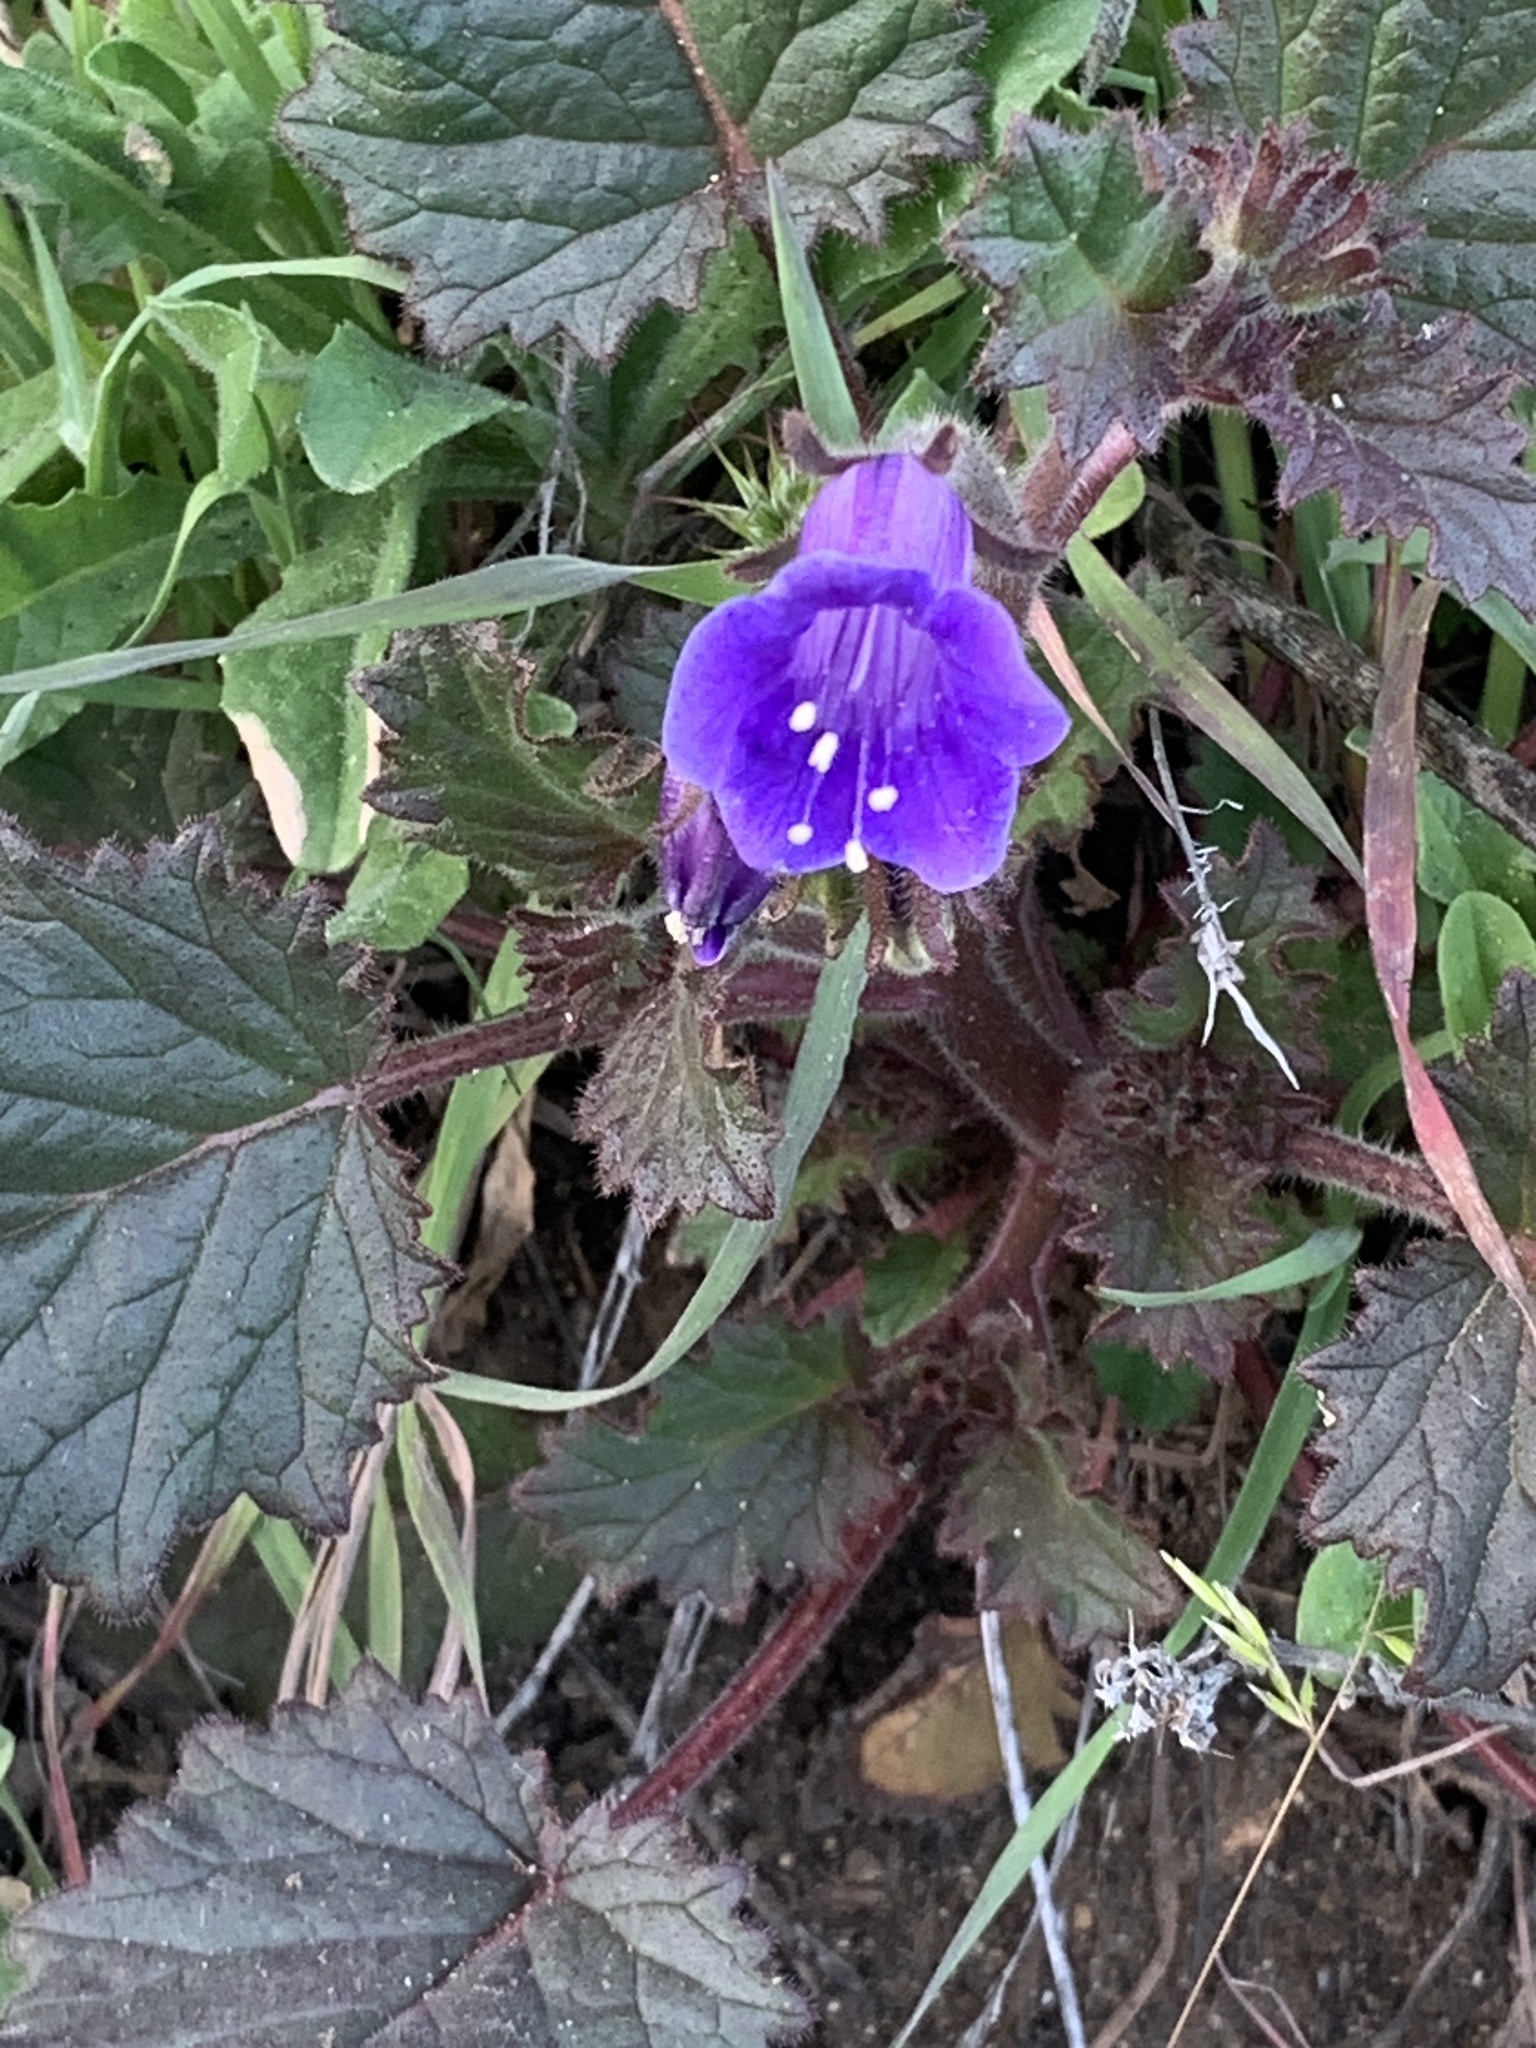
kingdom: Plantae
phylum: Tracheophyta
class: Magnoliopsida
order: Boraginales
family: Hydrophyllaceae
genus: Phacelia
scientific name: Phacelia minor
